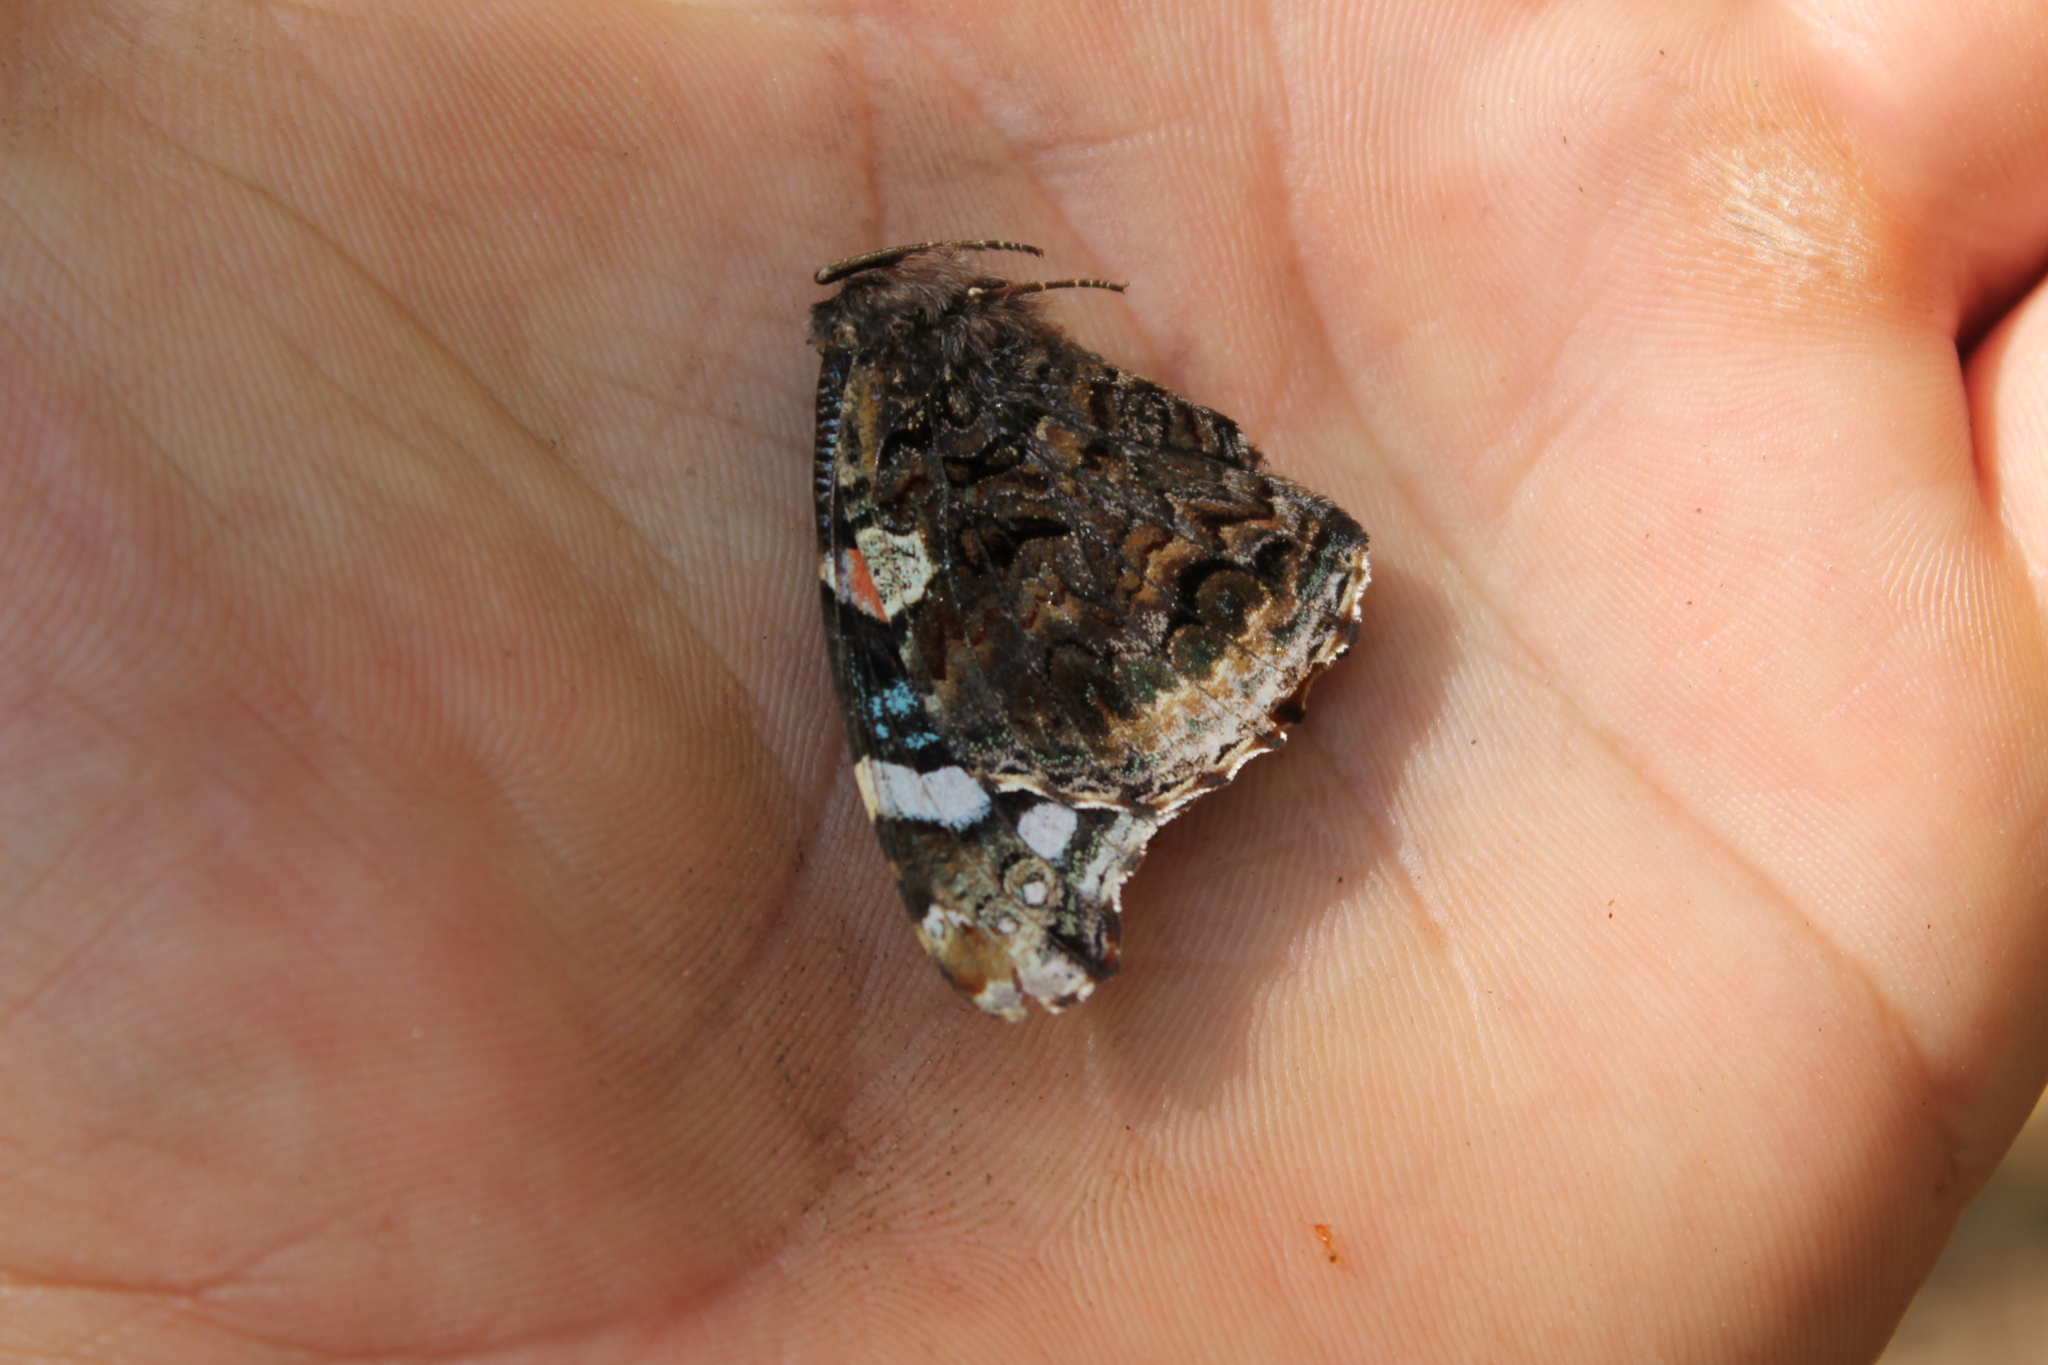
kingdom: Animalia
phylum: Arthropoda
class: Insecta
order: Lepidoptera
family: Nymphalidae
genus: Vanessa
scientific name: Vanessa atalanta
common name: Red admiral
